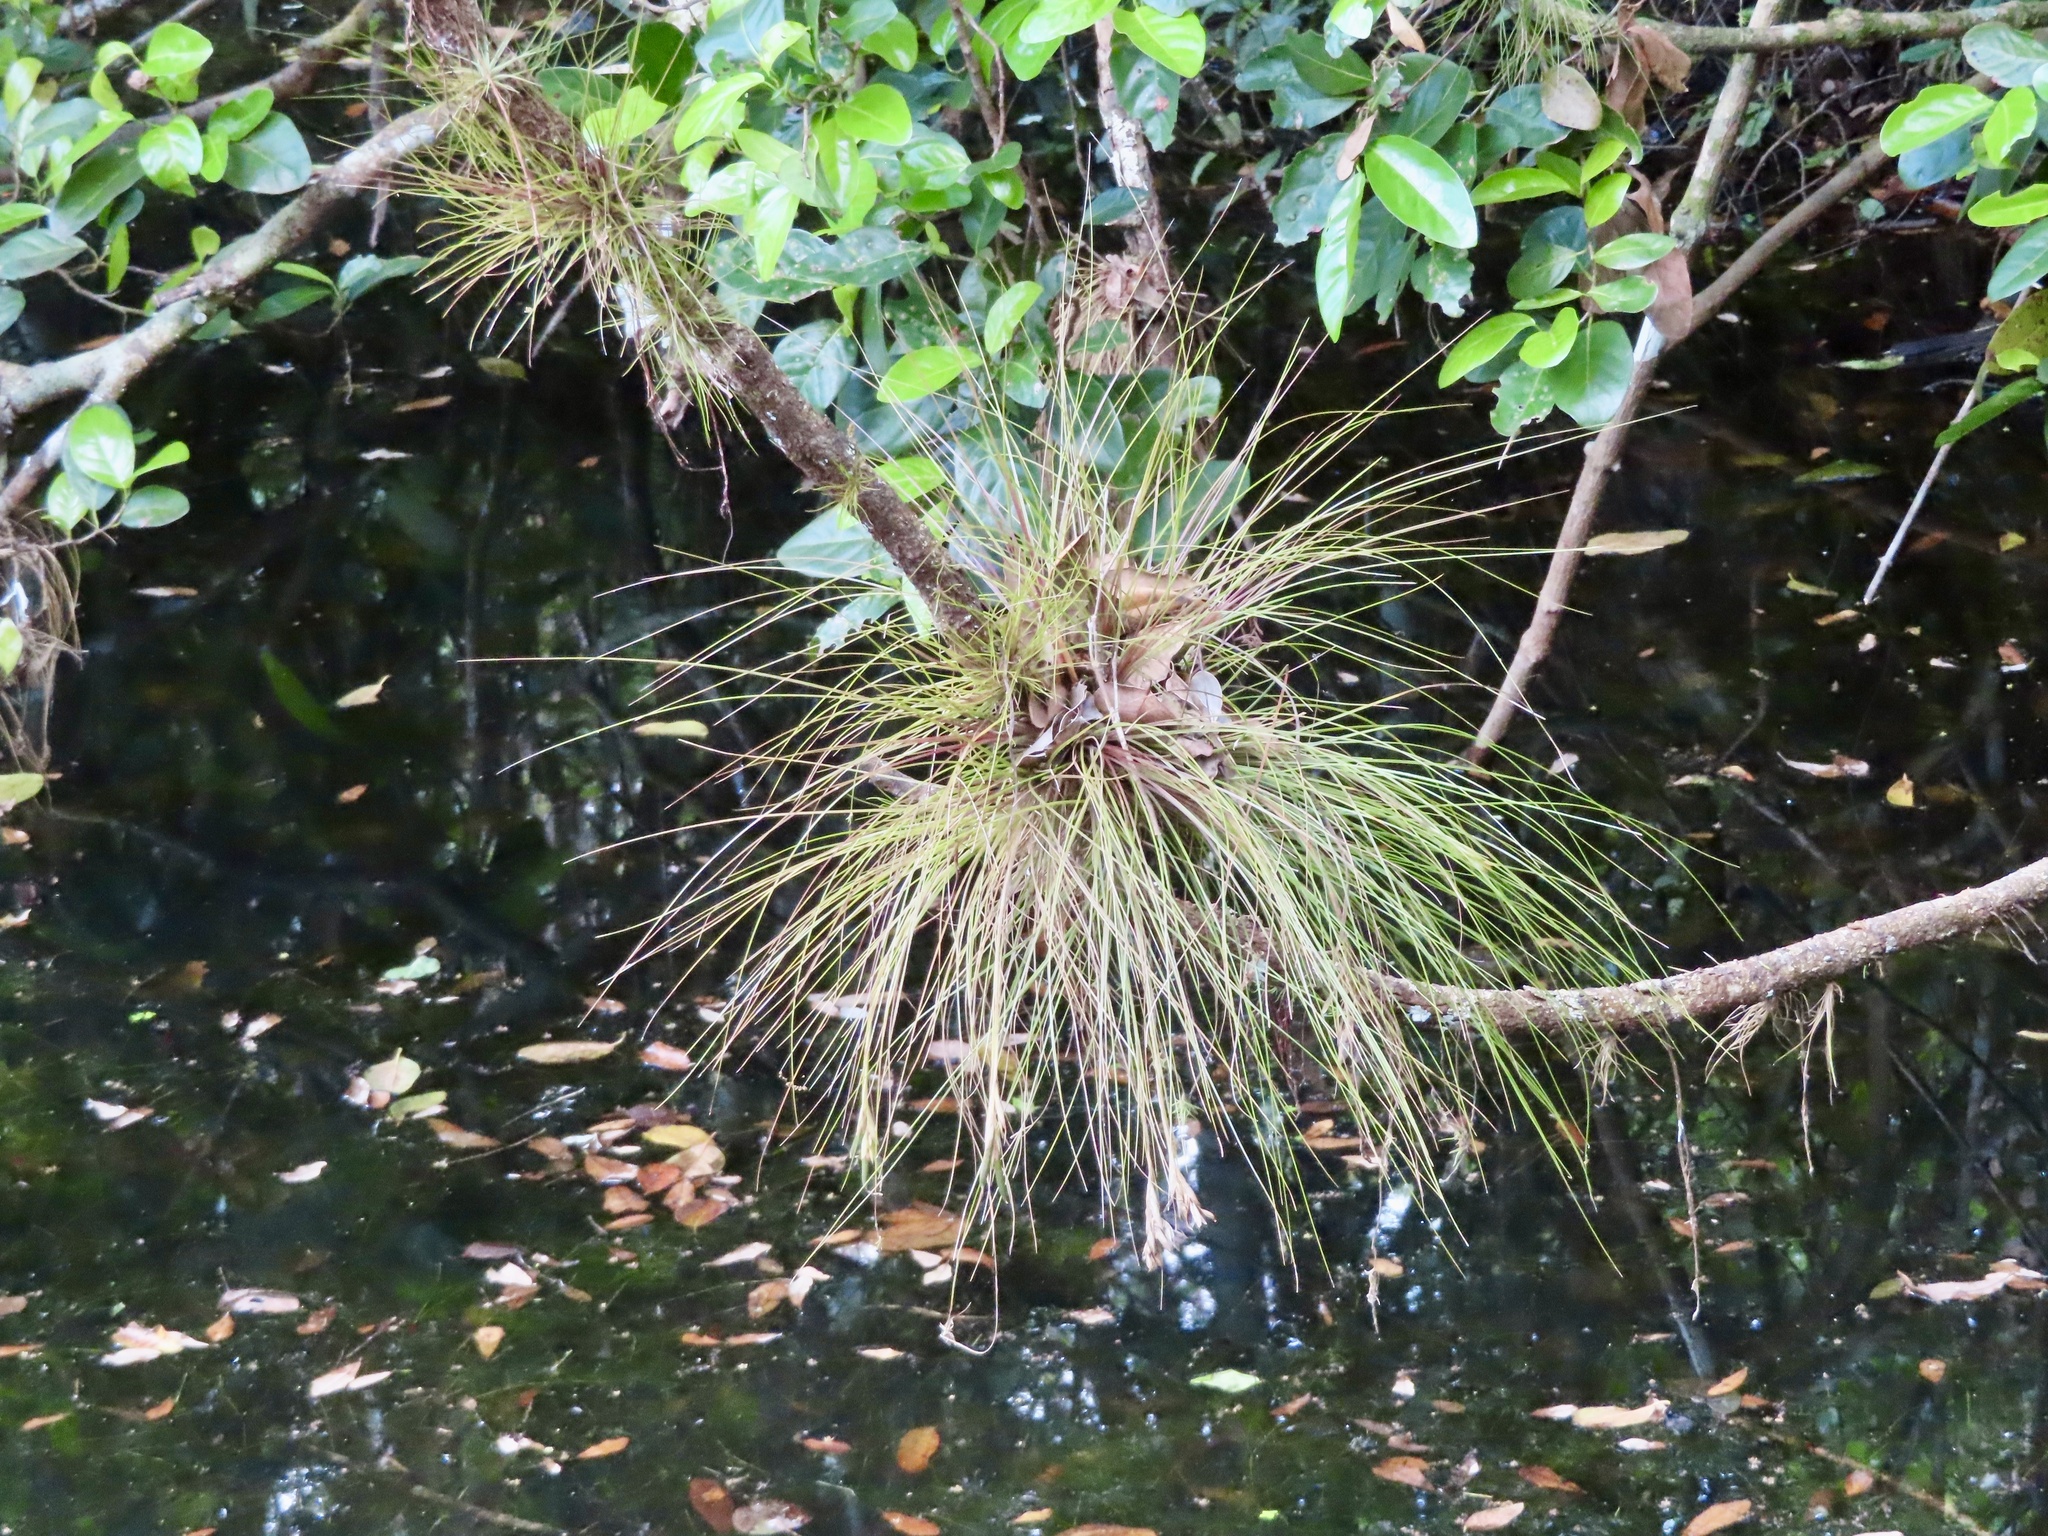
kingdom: Plantae
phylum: Tracheophyta
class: Liliopsida
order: Poales
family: Bromeliaceae
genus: Tillandsia
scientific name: Tillandsia setacea
